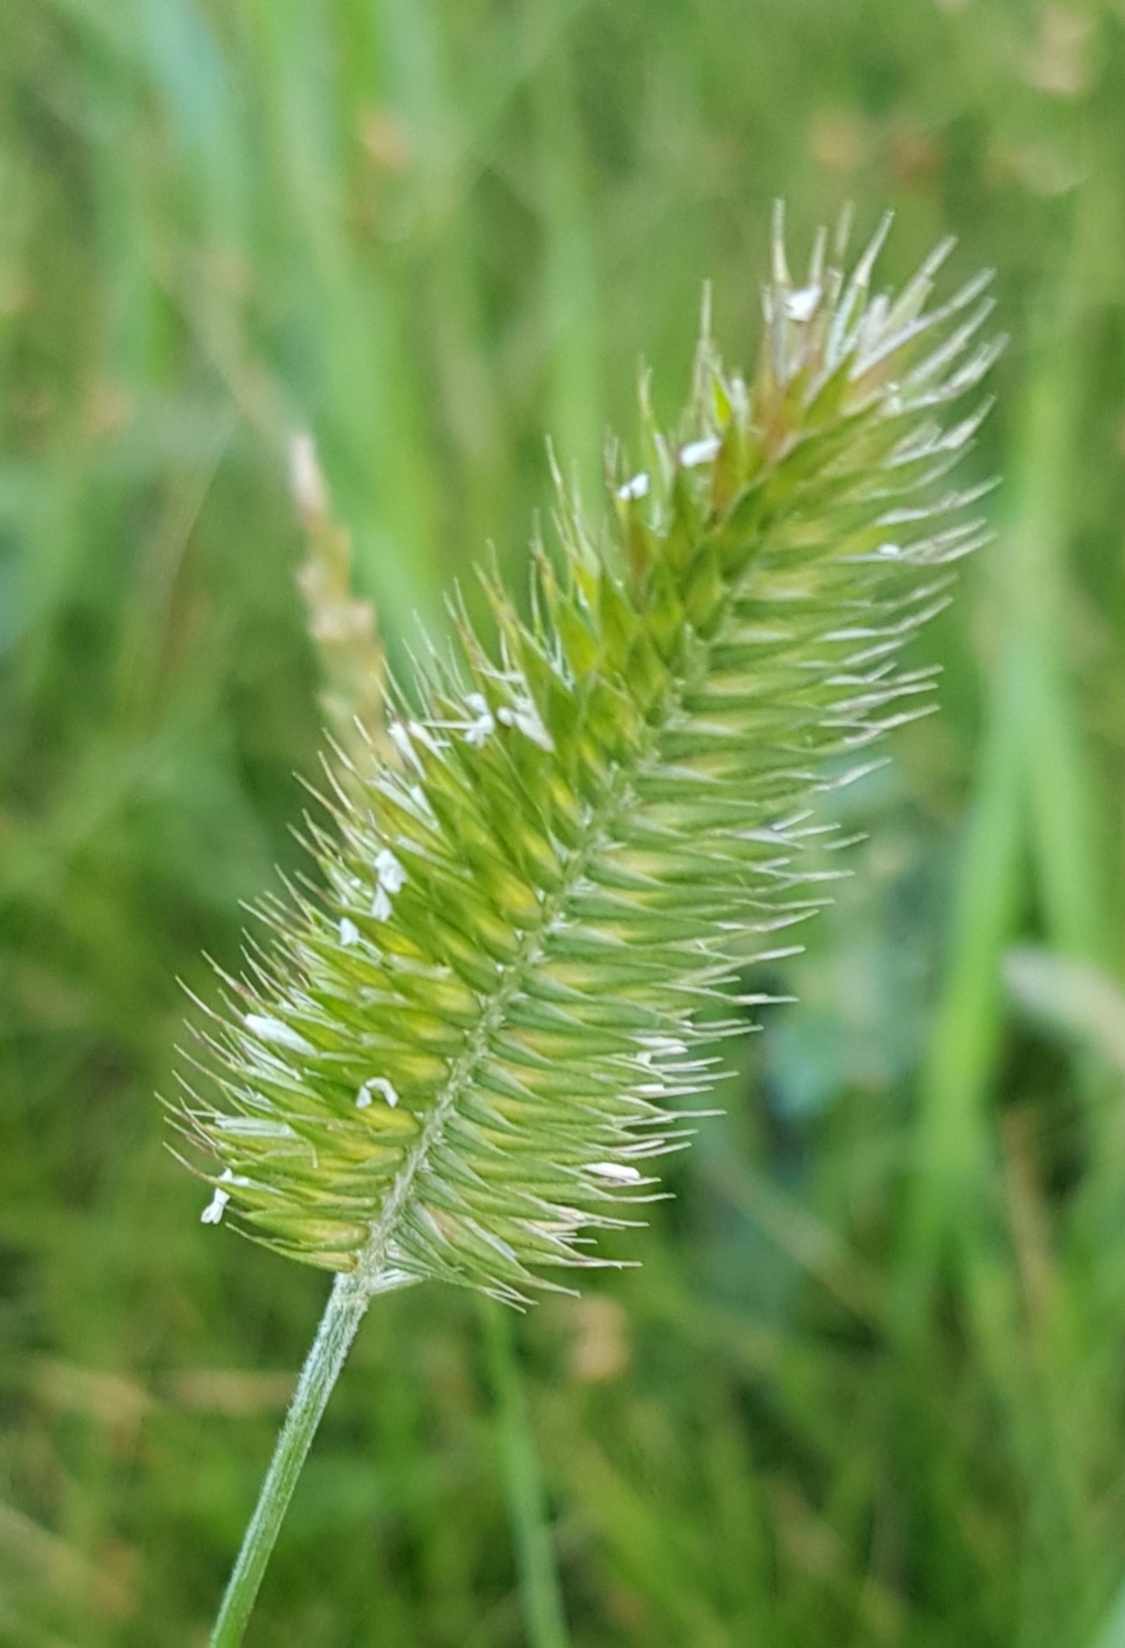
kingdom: Plantae
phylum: Tracheophyta
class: Liliopsida
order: Poales
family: Poaceae
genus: Agropyron
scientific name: Agropyron cristatum
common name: Crested wheatgrass
